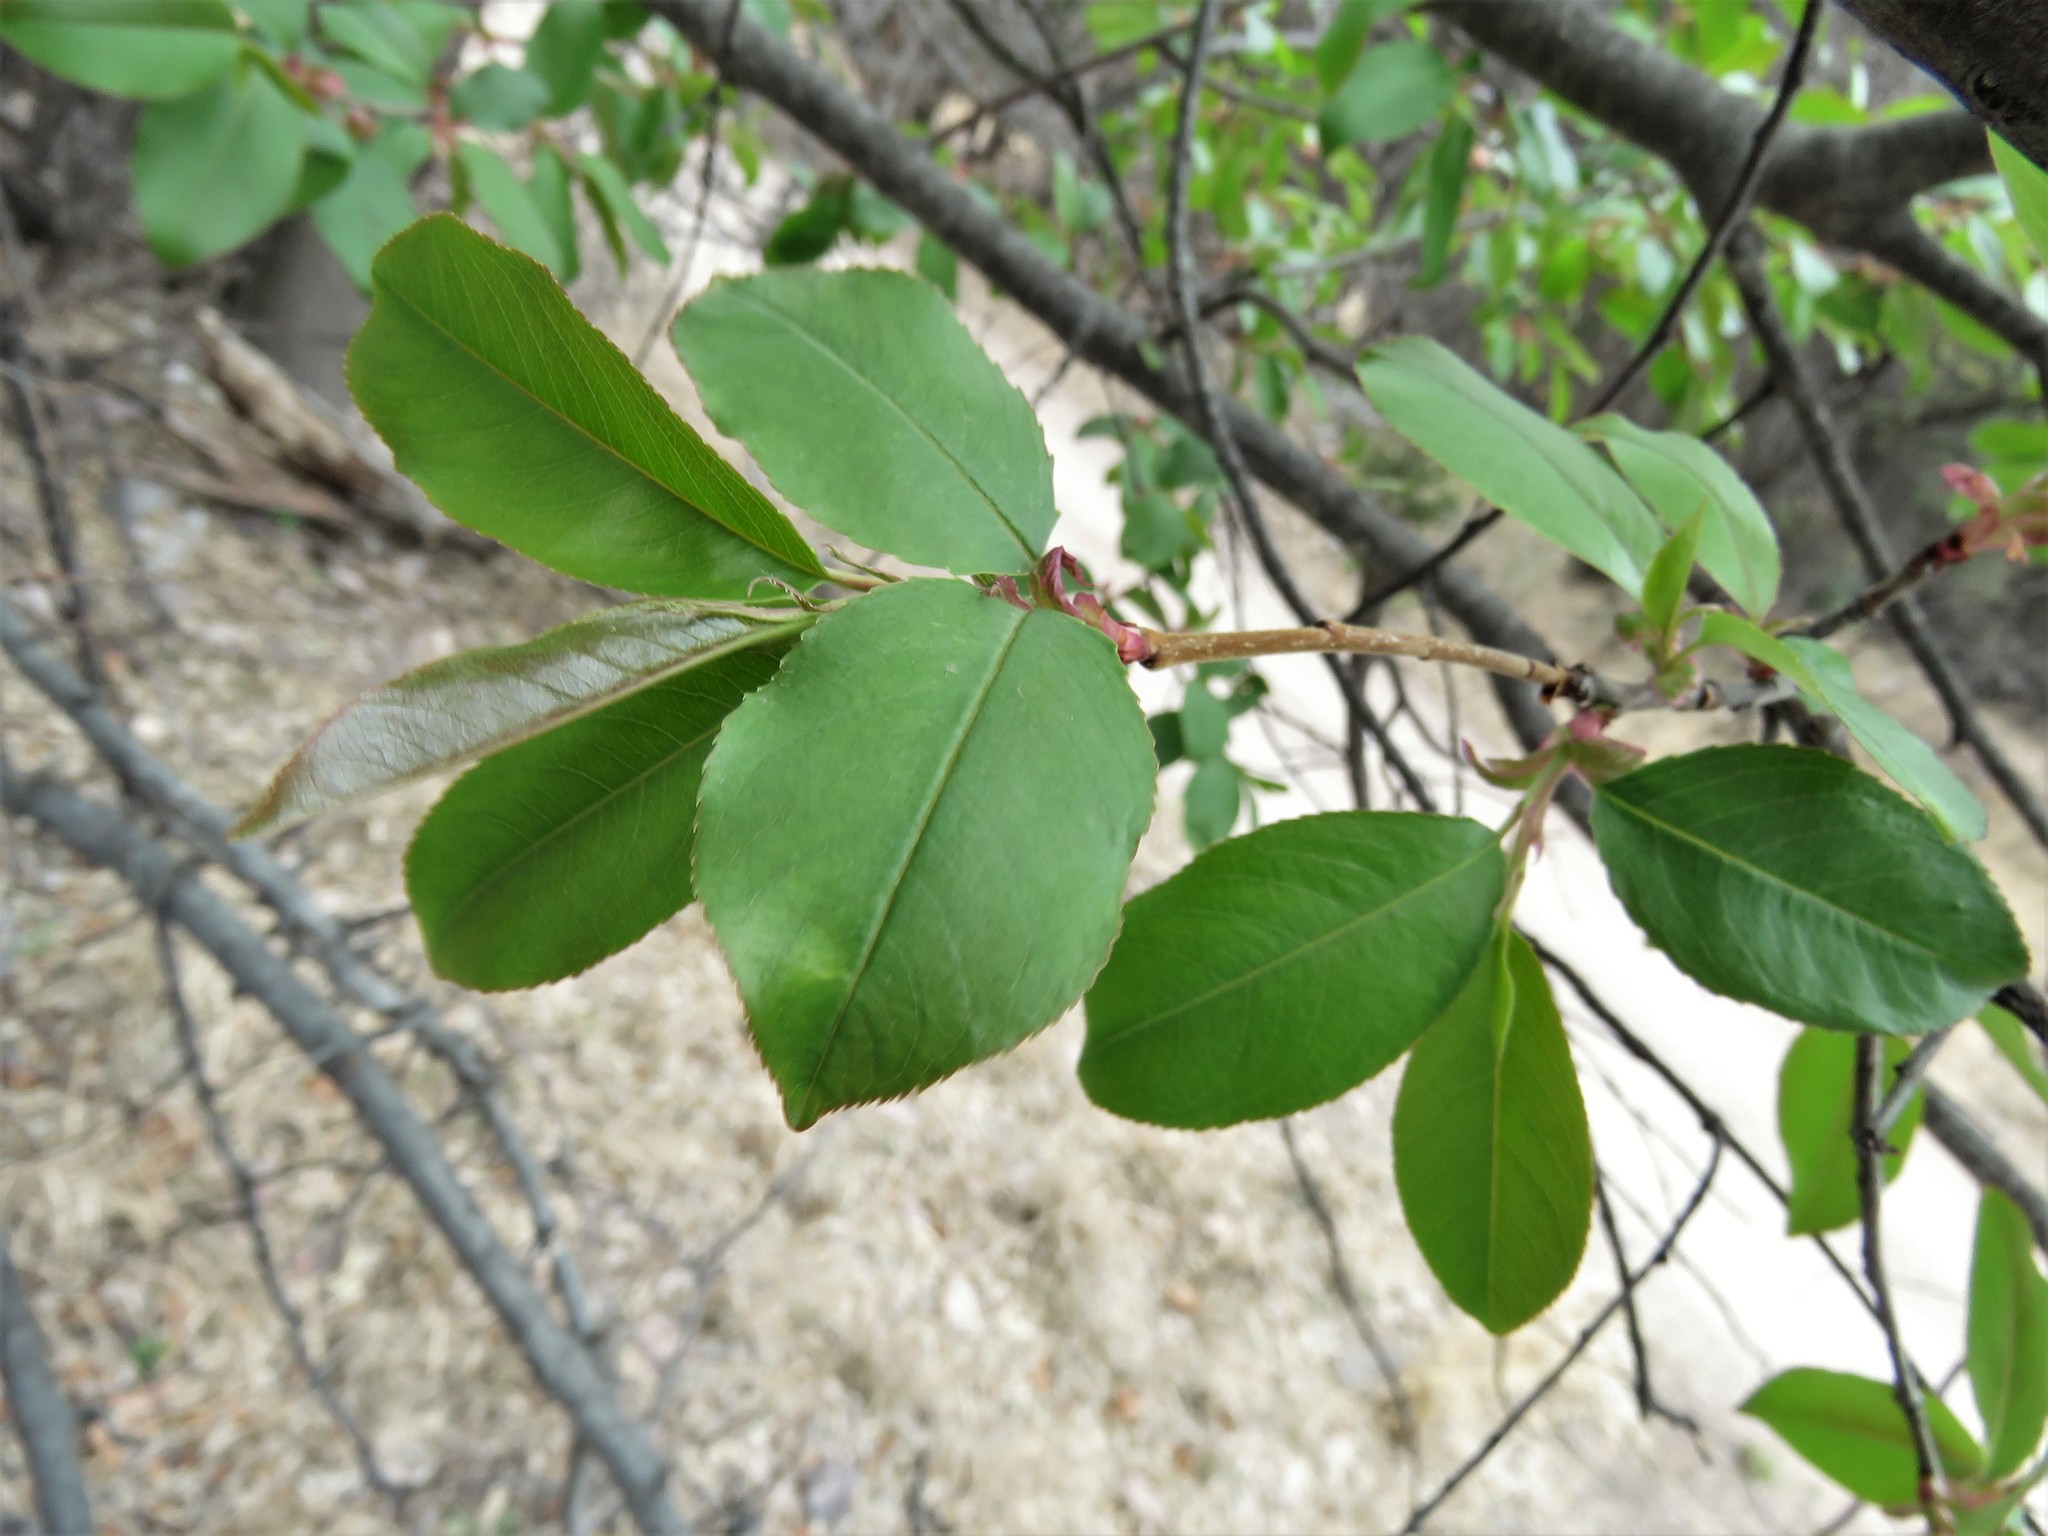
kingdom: Plantae
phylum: Tracheophyta
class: Magnoliopsida
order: Ericales
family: Ericaceae
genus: Arbutus
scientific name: Arbutus arizonica
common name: Arizona madrone
